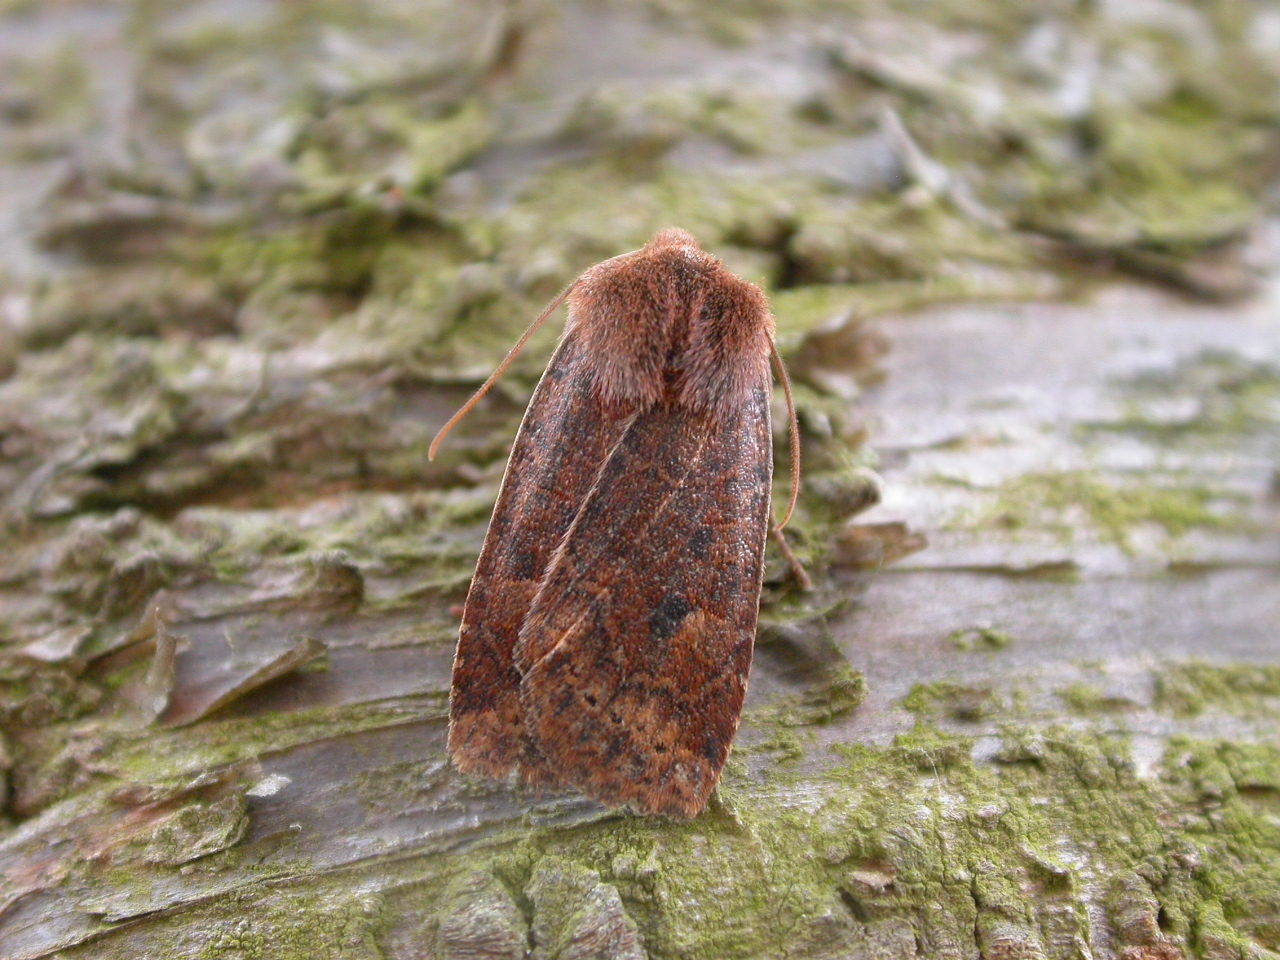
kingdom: Animalia
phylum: Arthropoda
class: Insecta
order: Lepidoptera
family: Noctuidae
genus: Conistra
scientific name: Conistra vaccinii
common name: Chestnut
